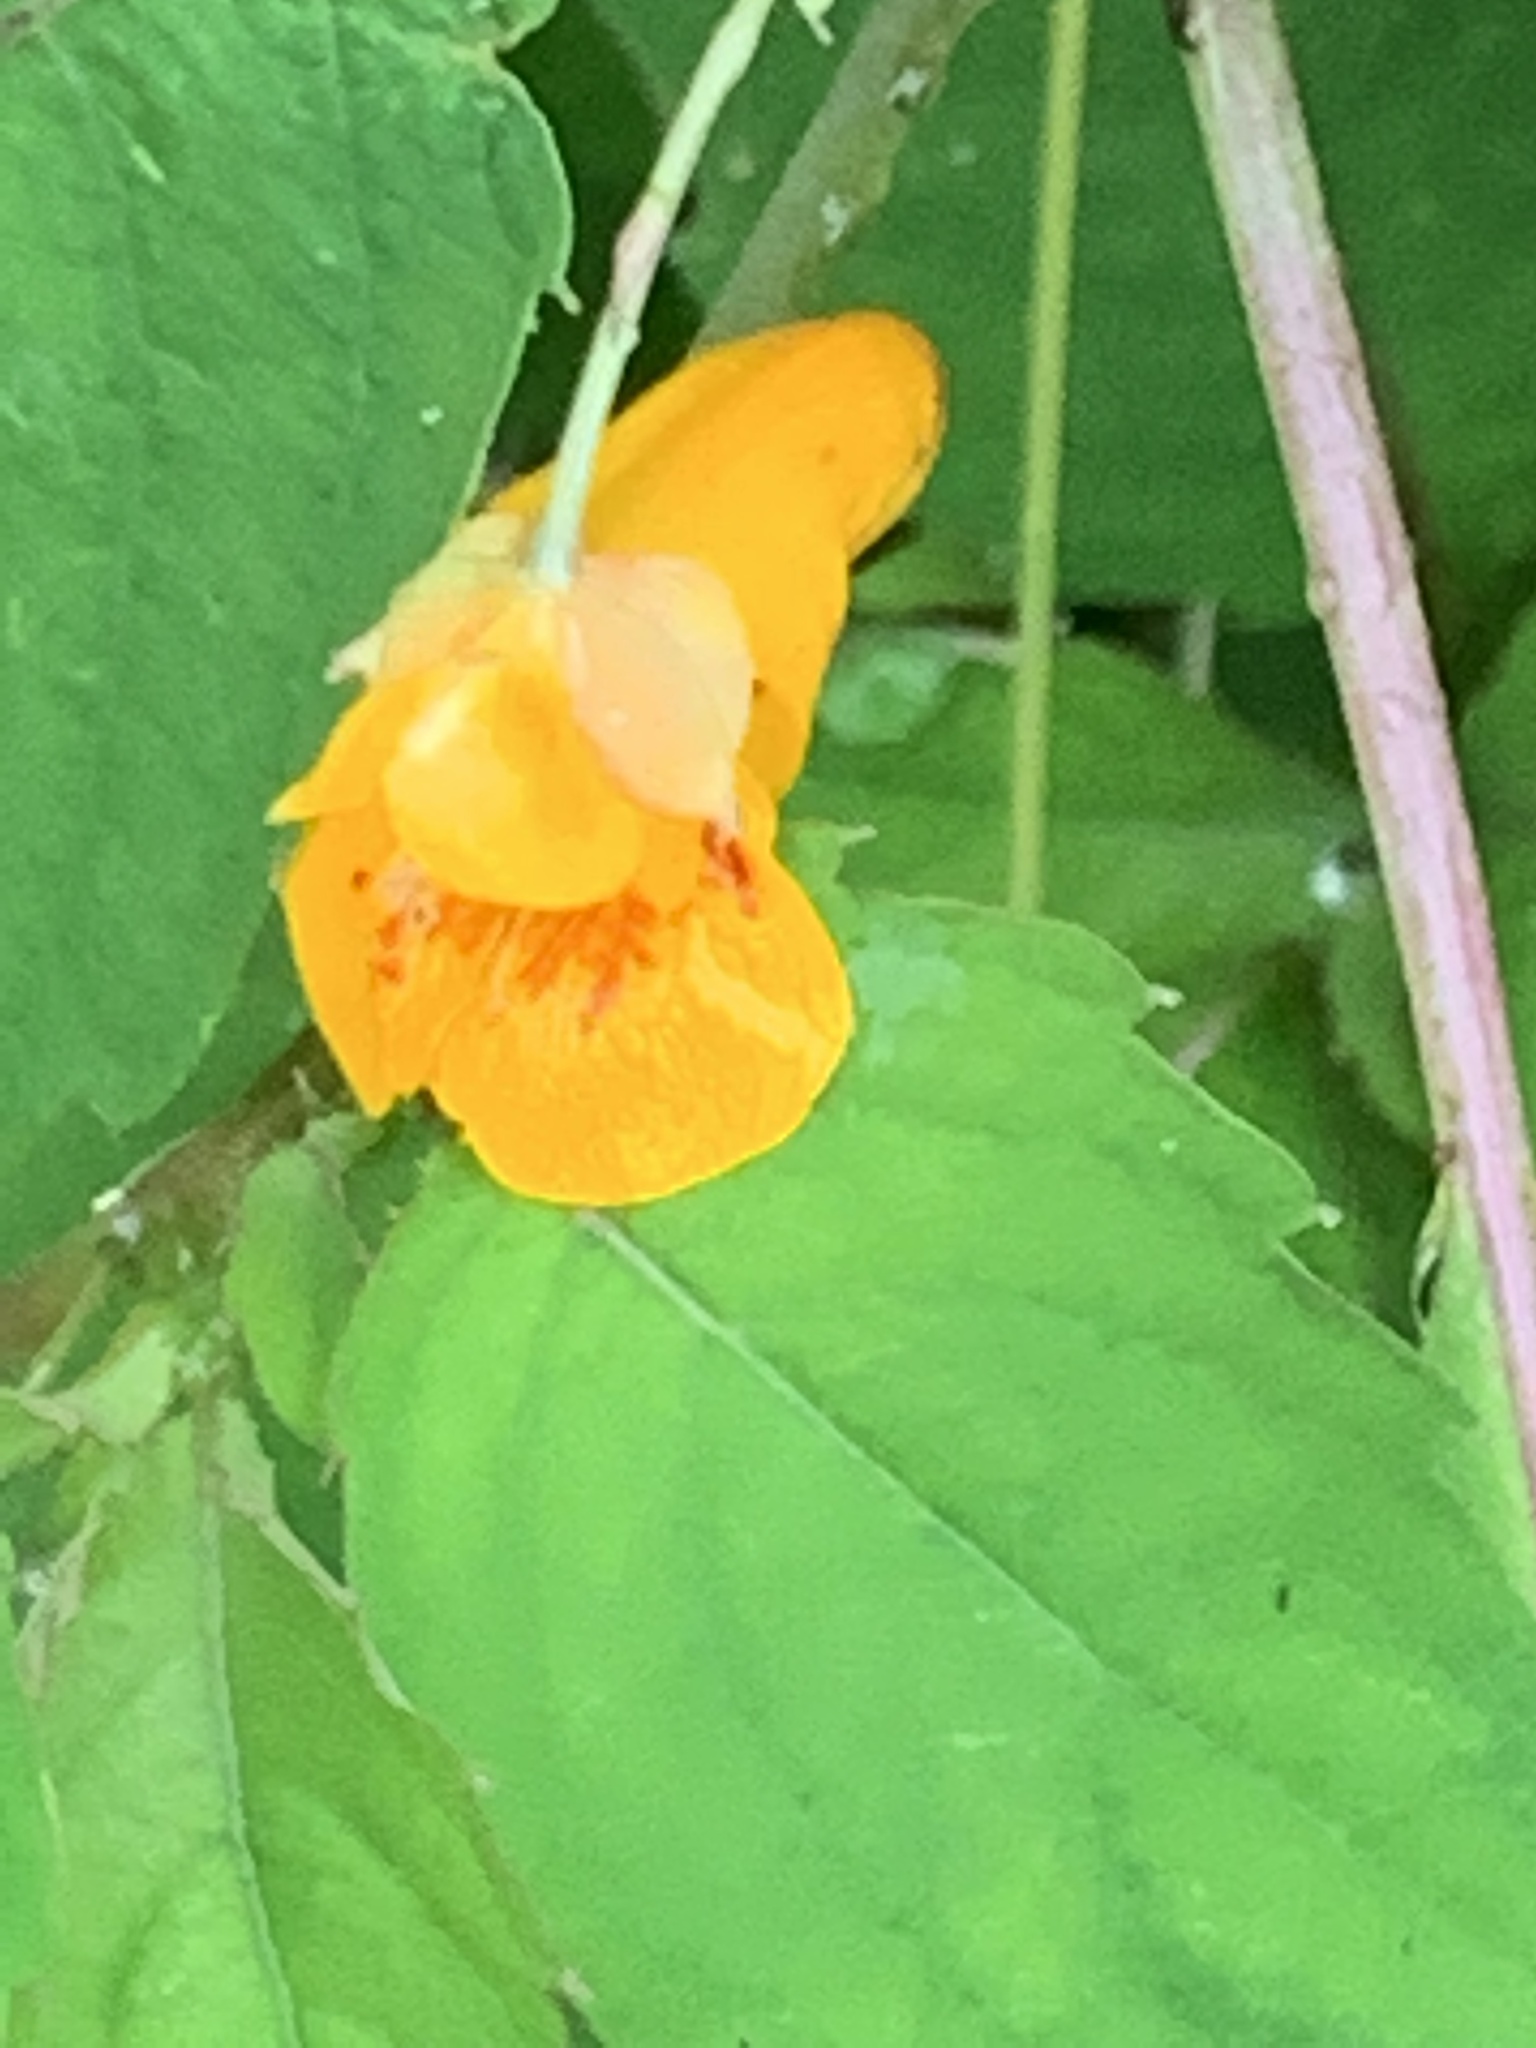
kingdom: Plantae
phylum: Tracheophyta
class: Magnoliopsida
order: Ericales
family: Balsaminaceae
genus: Impatiens
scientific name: Impatiens capensis
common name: Orange balsam
